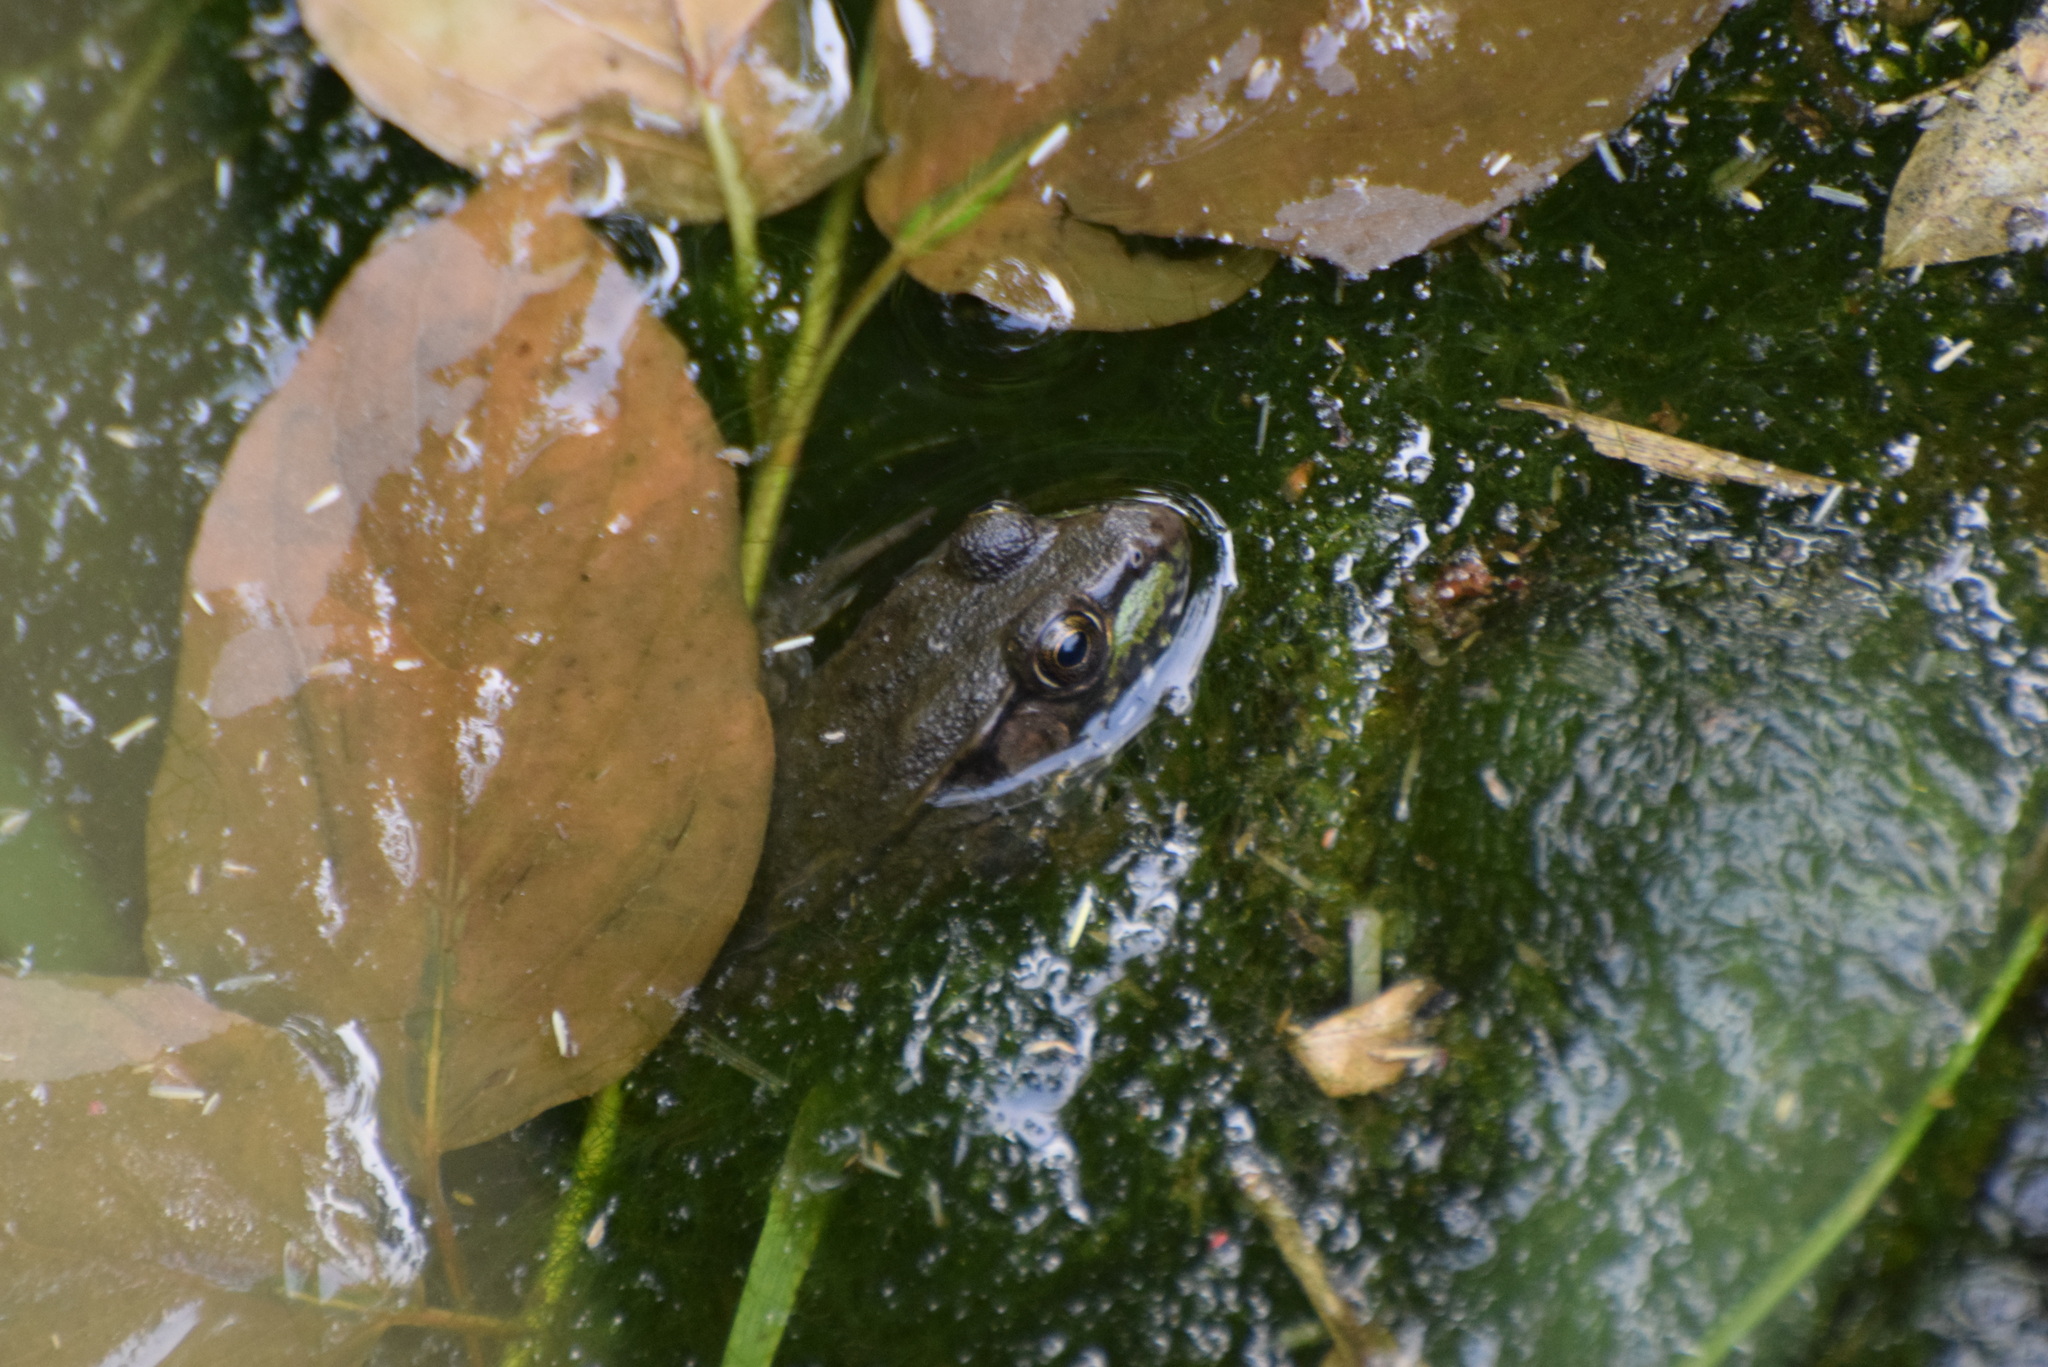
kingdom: Animalia
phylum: Chordata
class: Amphibia
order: Anura
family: Ranidae
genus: Lithobates
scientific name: Lithobates clamitans
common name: Green frog
